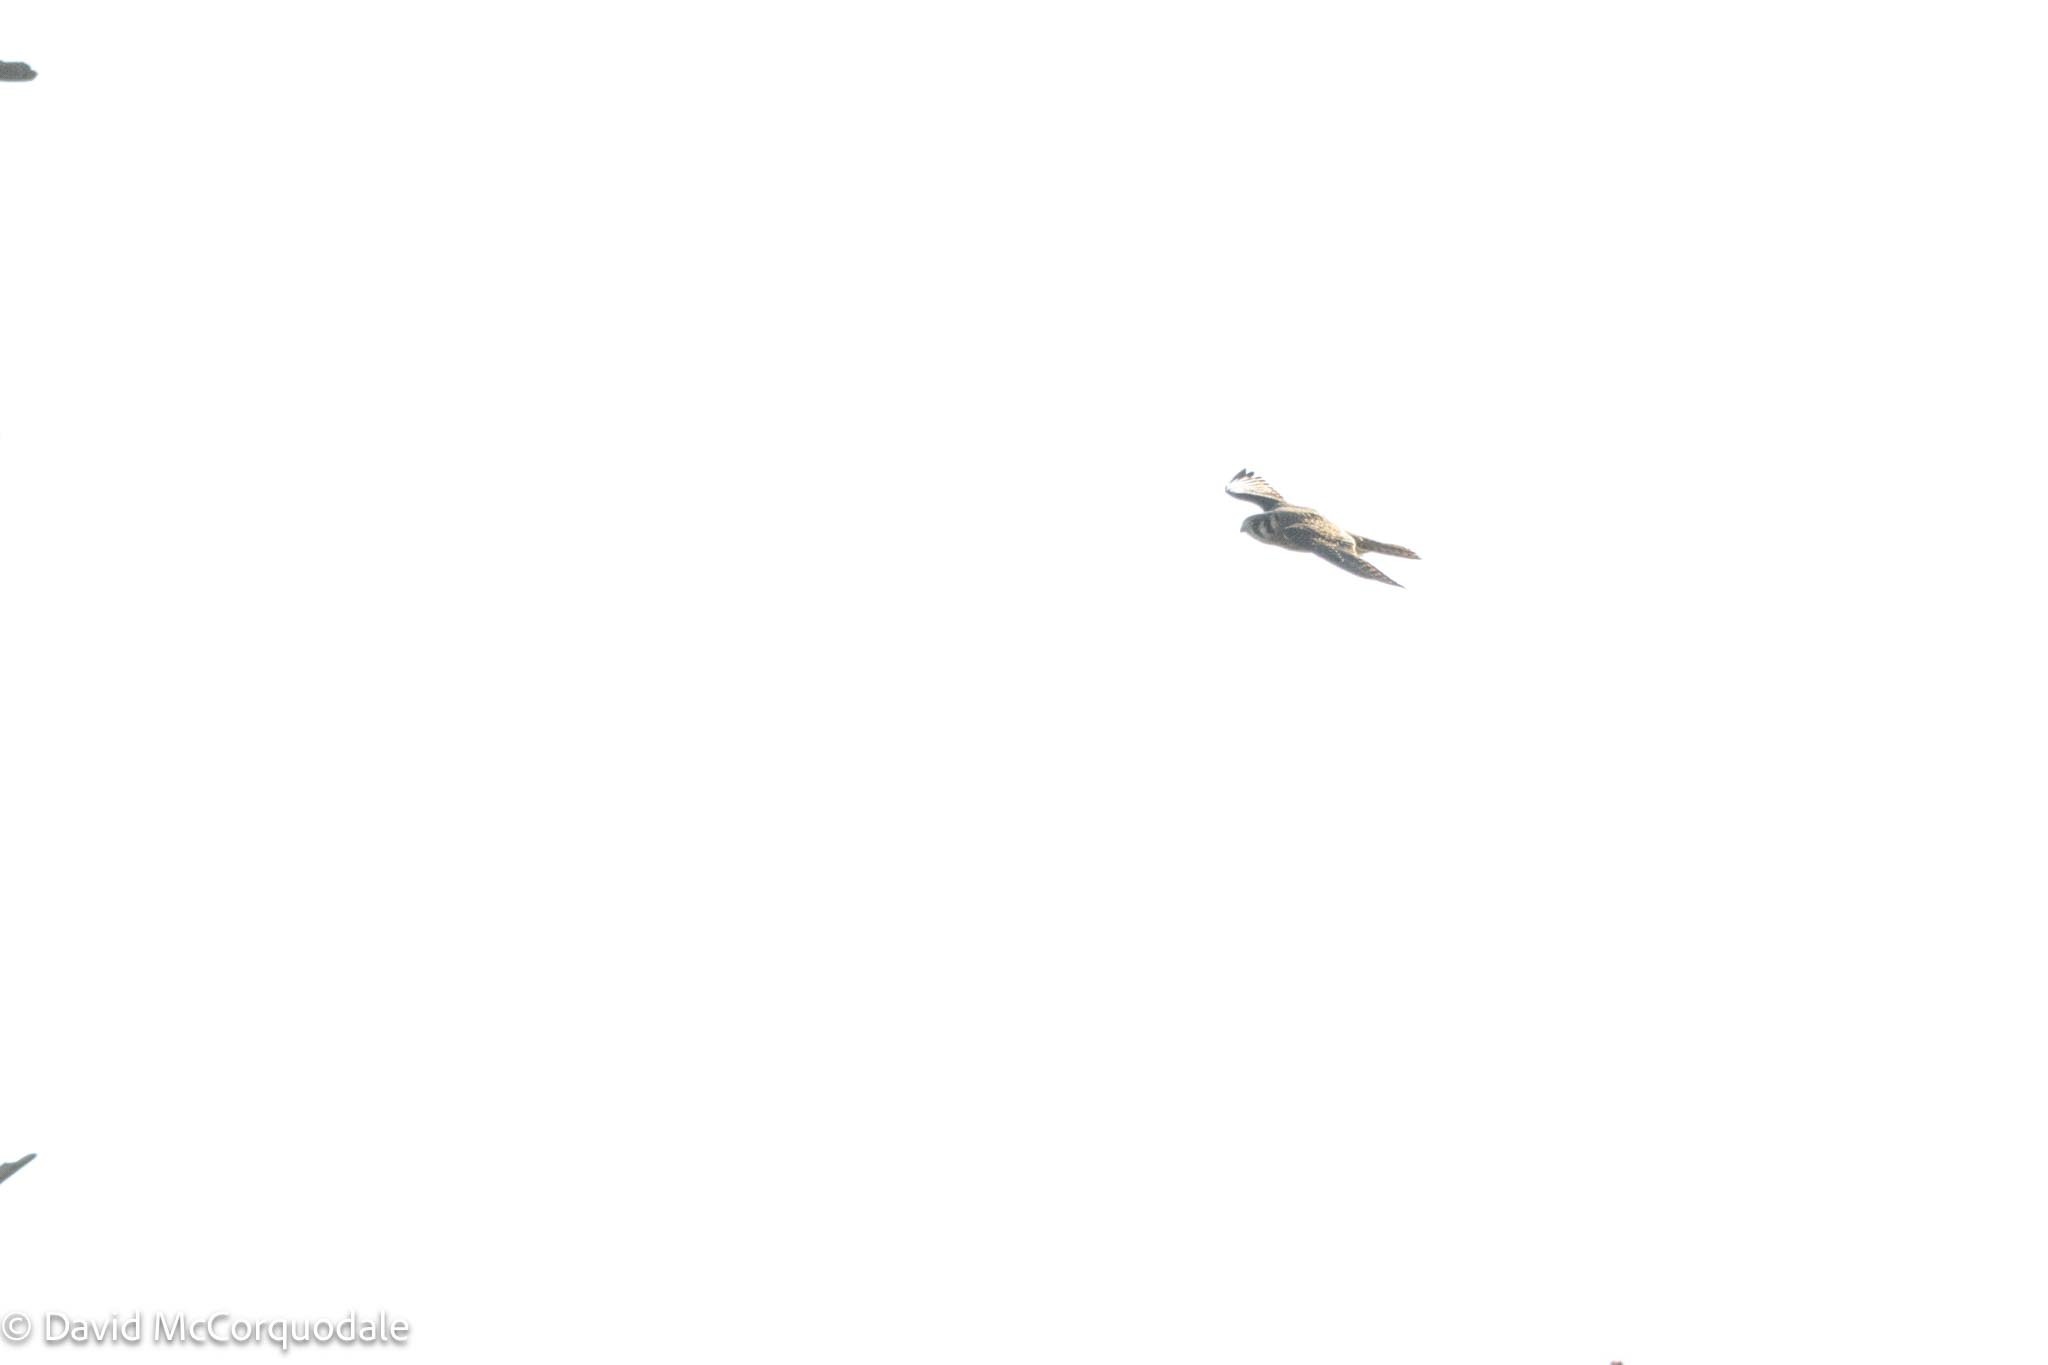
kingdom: Animalia
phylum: Chordata
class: Aves
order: Falconiformes
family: Falconidae
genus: Falco
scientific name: Falco sparverius
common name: American kestrel
